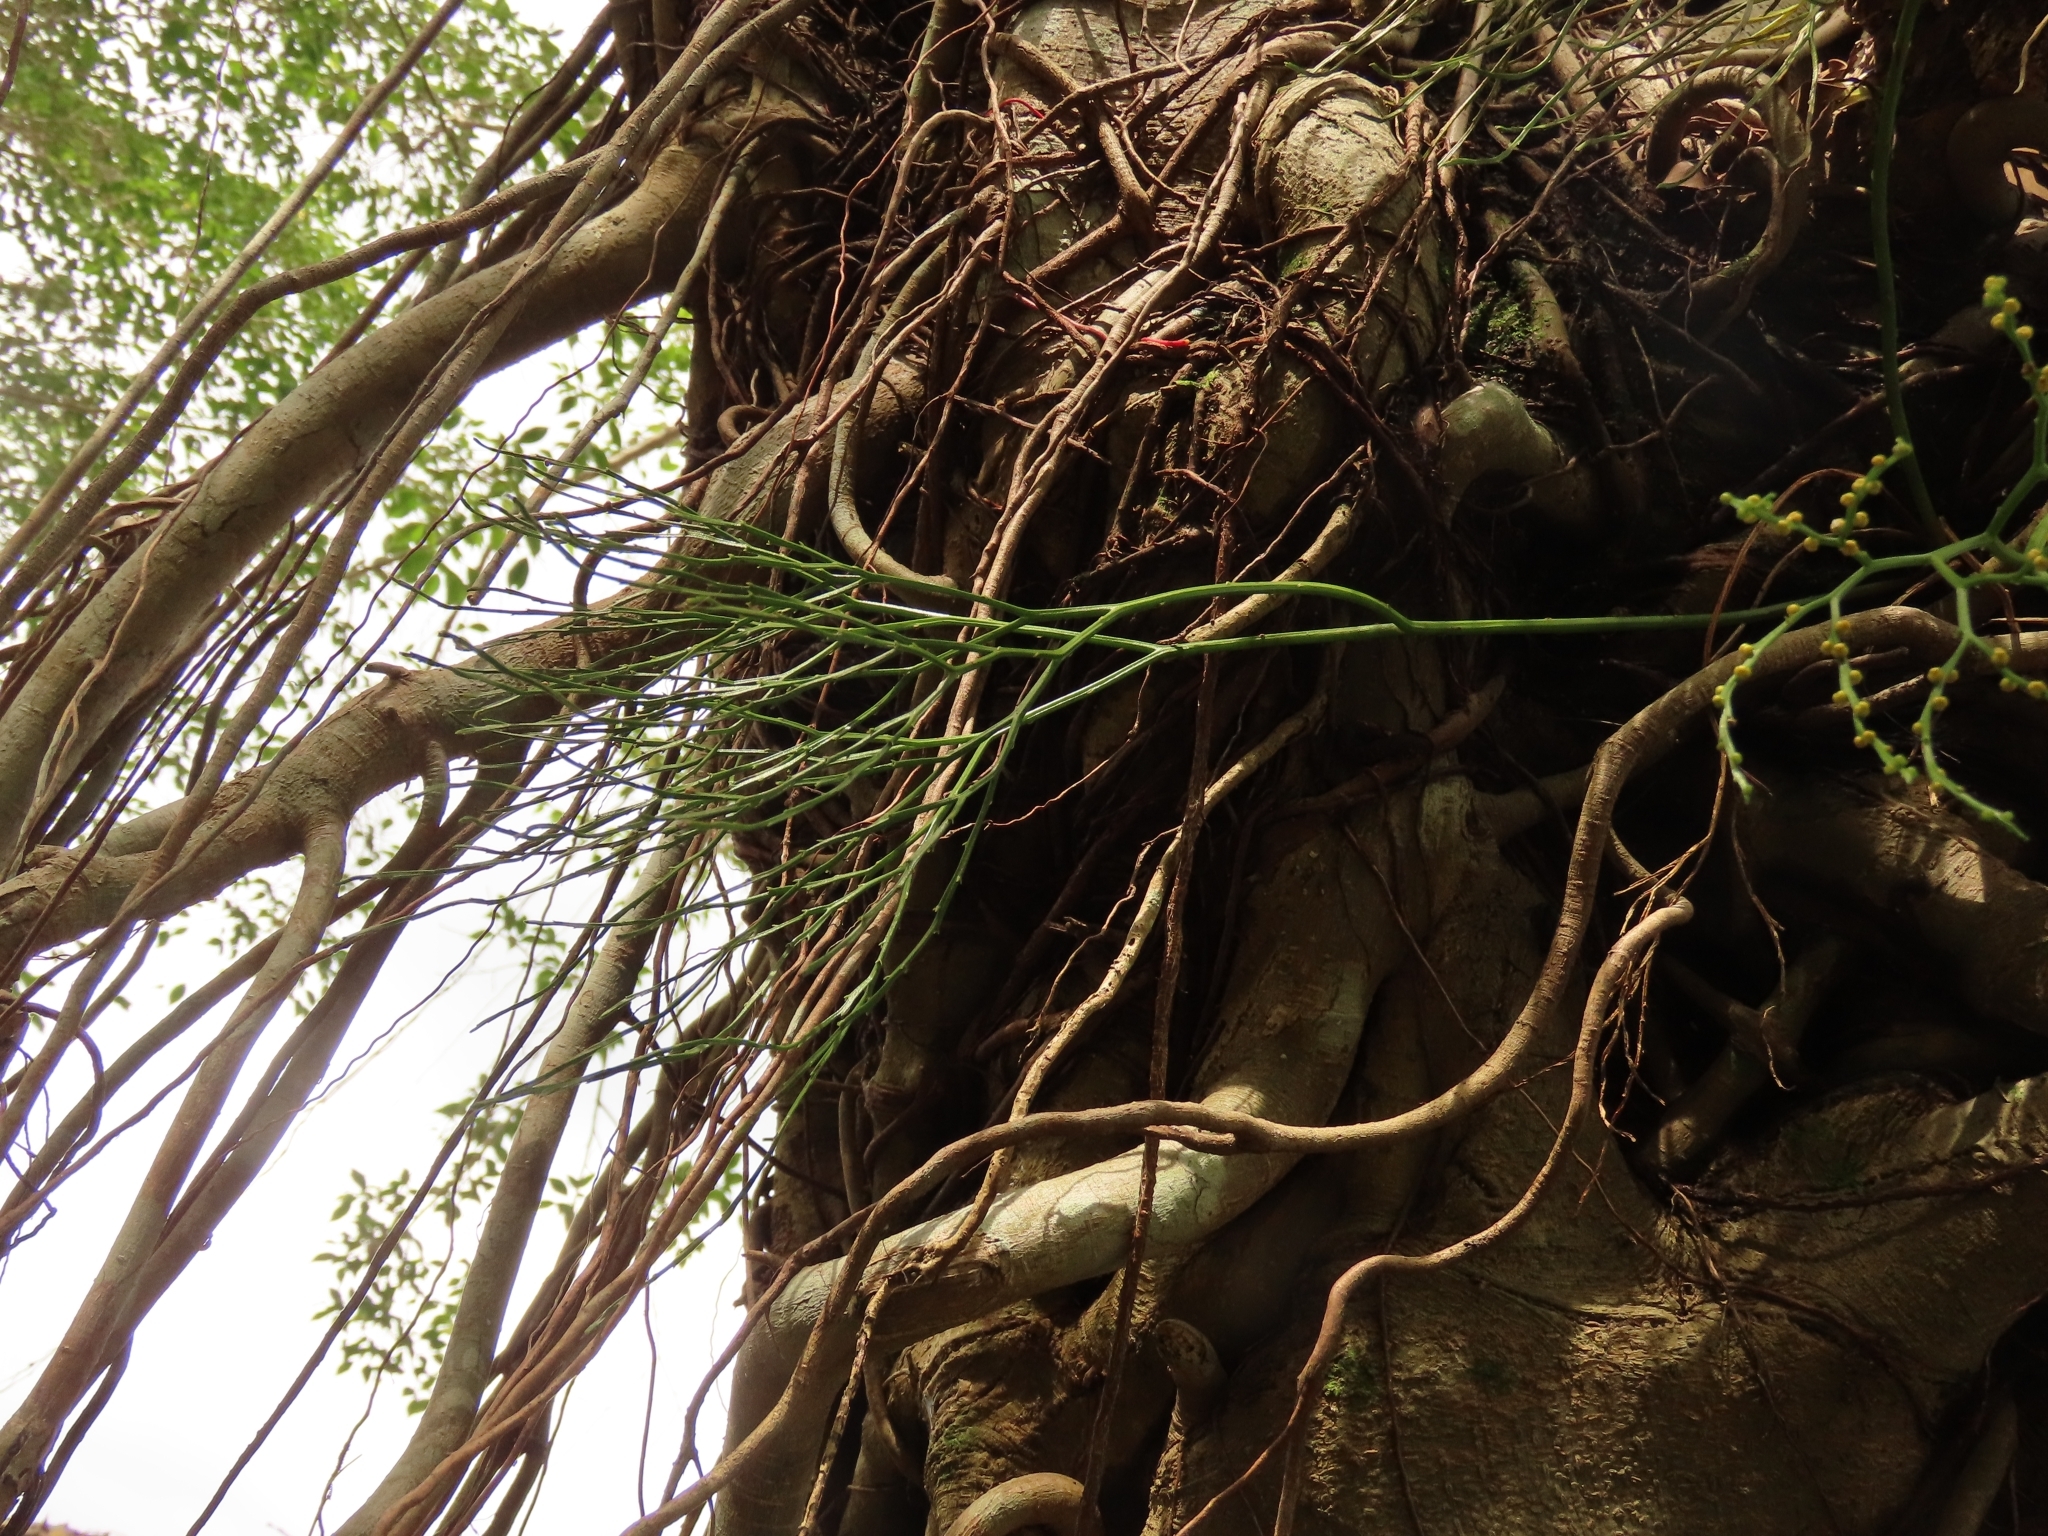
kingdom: Plantae
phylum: Tracheophyta
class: Polypodiopsida
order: Psilotales
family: Psilotaceae
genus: Psilotum
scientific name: Psilotum nudum
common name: Skeleton fork fern
